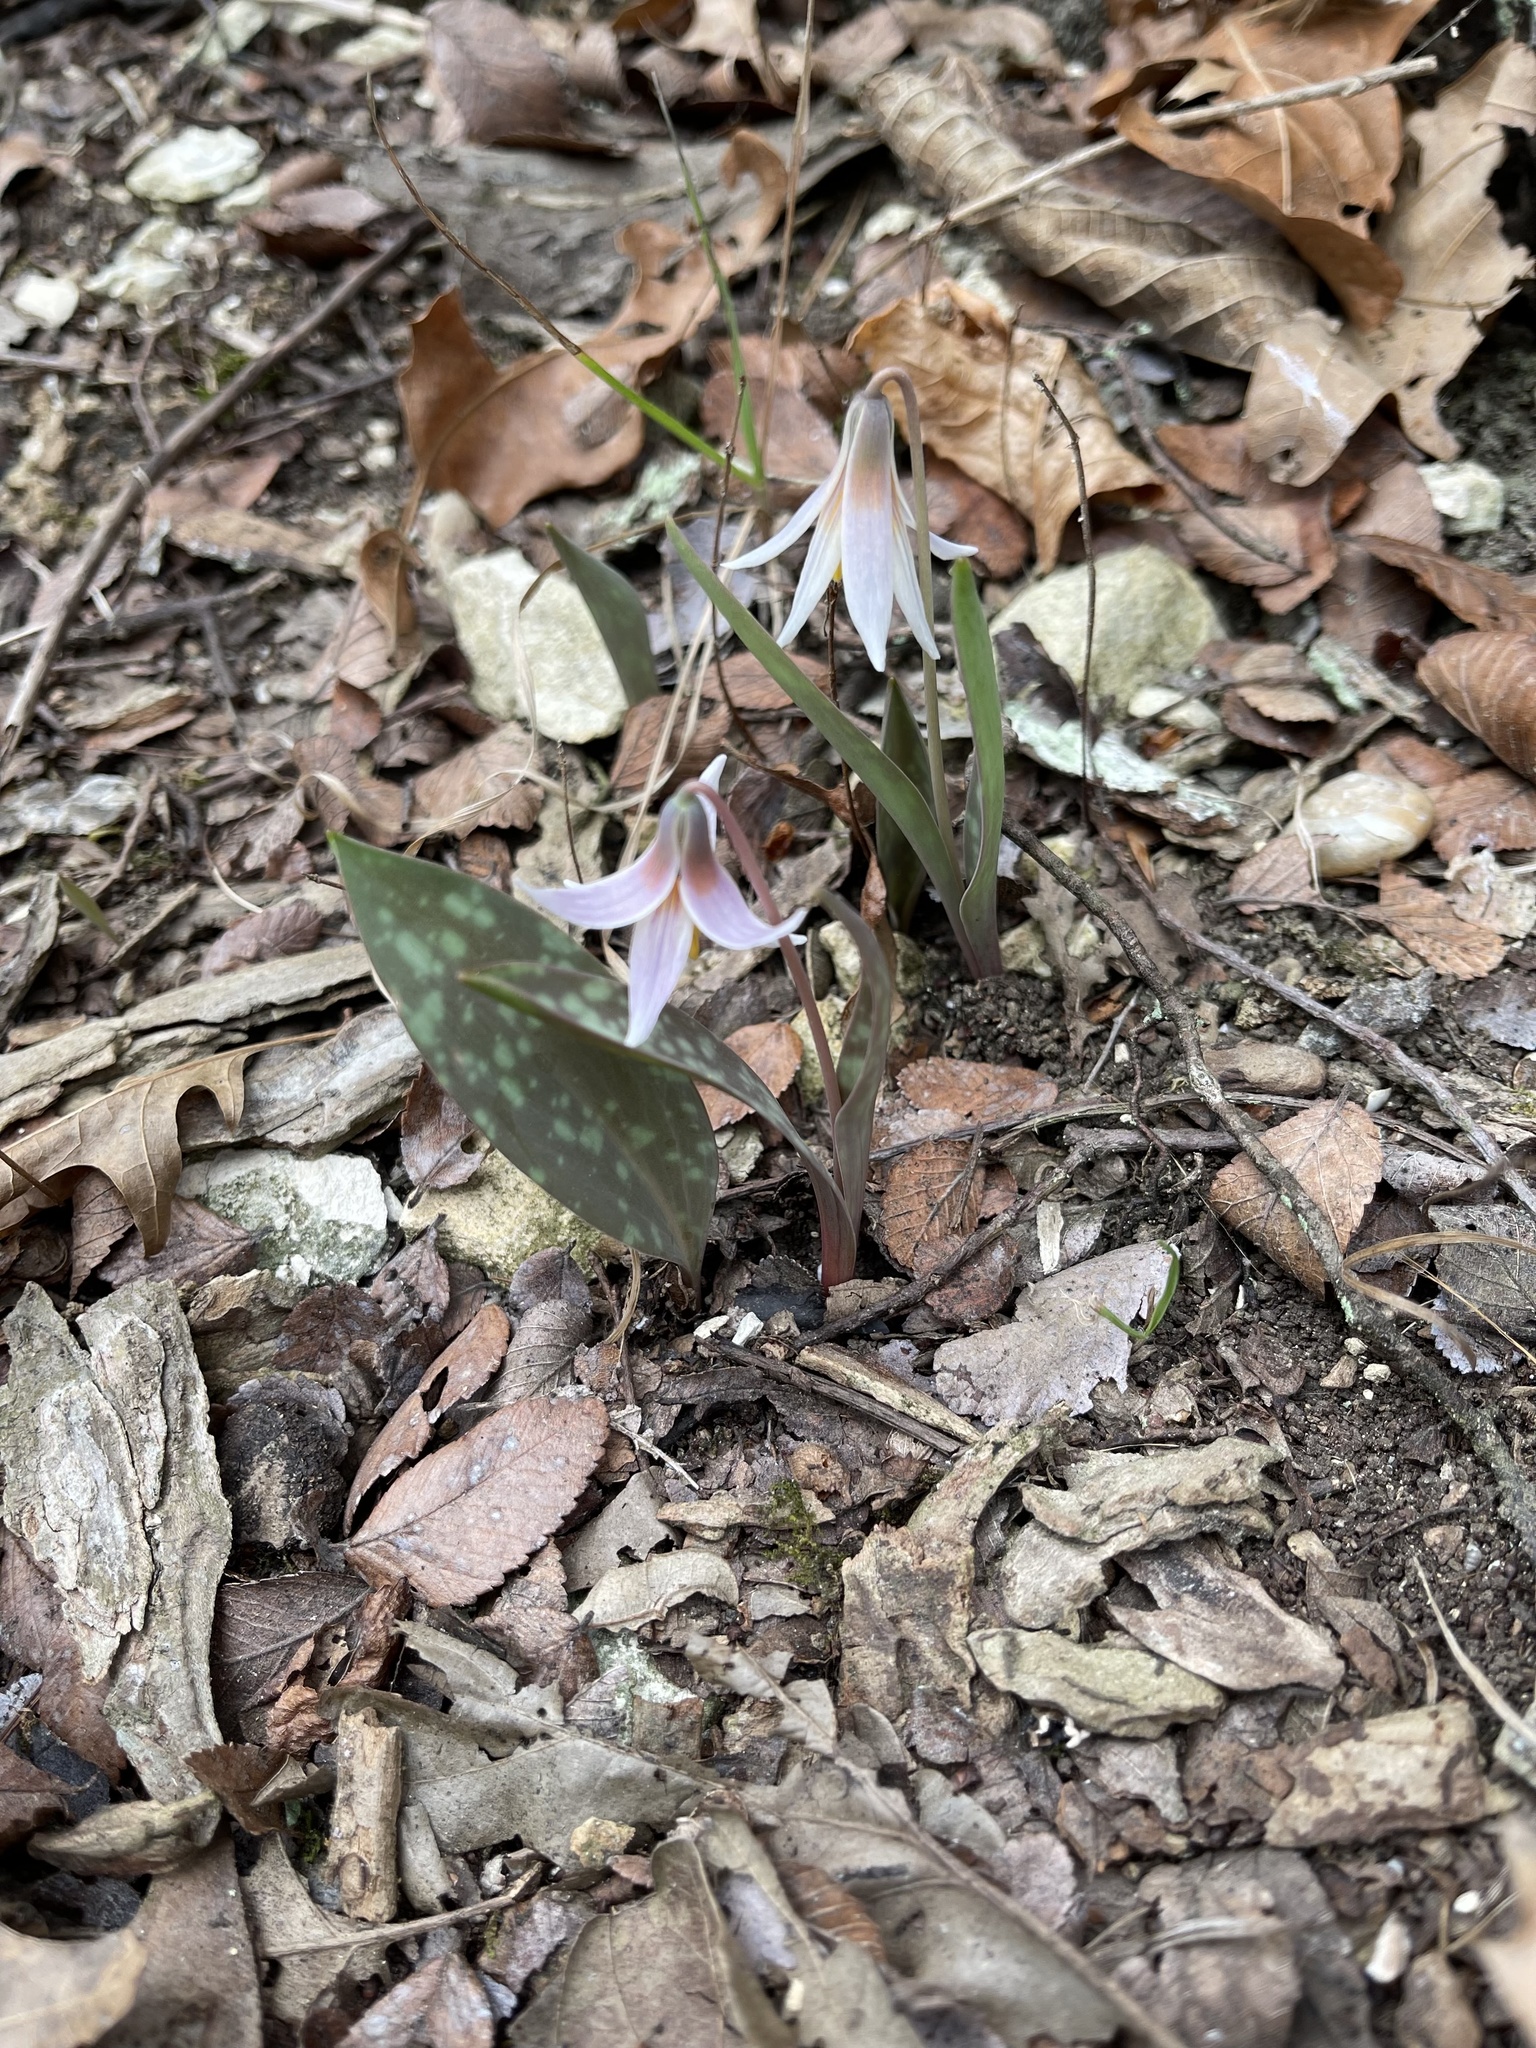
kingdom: Plantae
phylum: Tracheophyta
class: Liliopsida
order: Liliales
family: Liliaceae
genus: Erythronium
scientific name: Erythronium albidum
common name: White trout-lily
